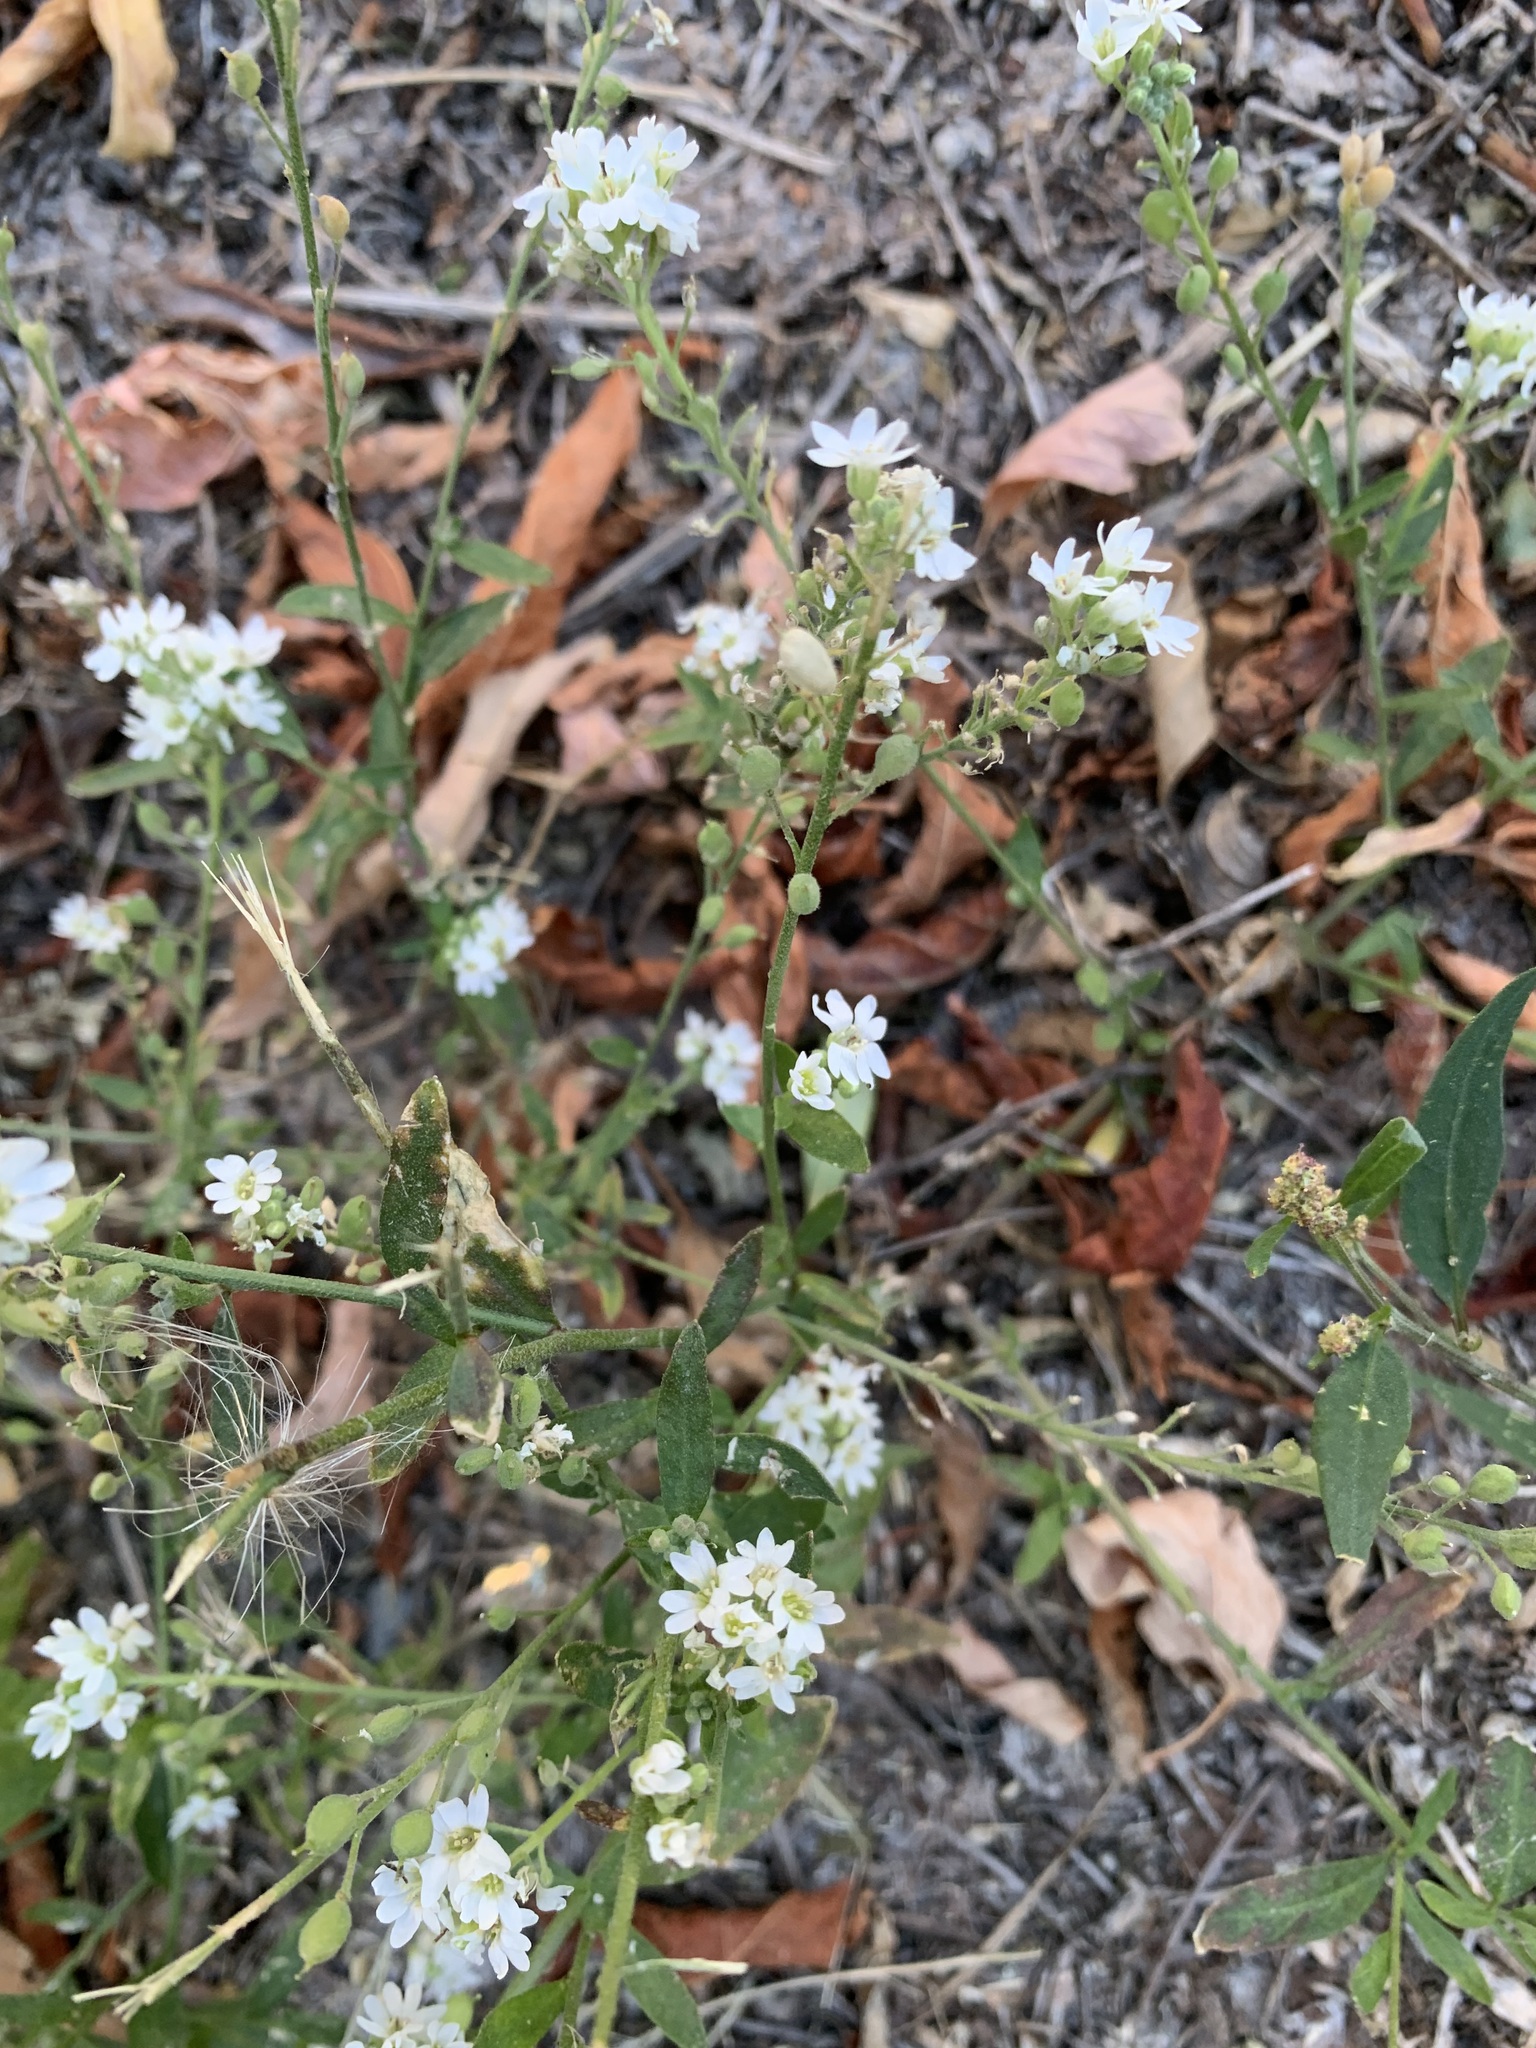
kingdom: Plantae
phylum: Tracheophyta
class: Magnoliopsida
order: Brassicales
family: Brassicaceae
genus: Berteroa
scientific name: Berteroa incana
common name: Hoary alison
